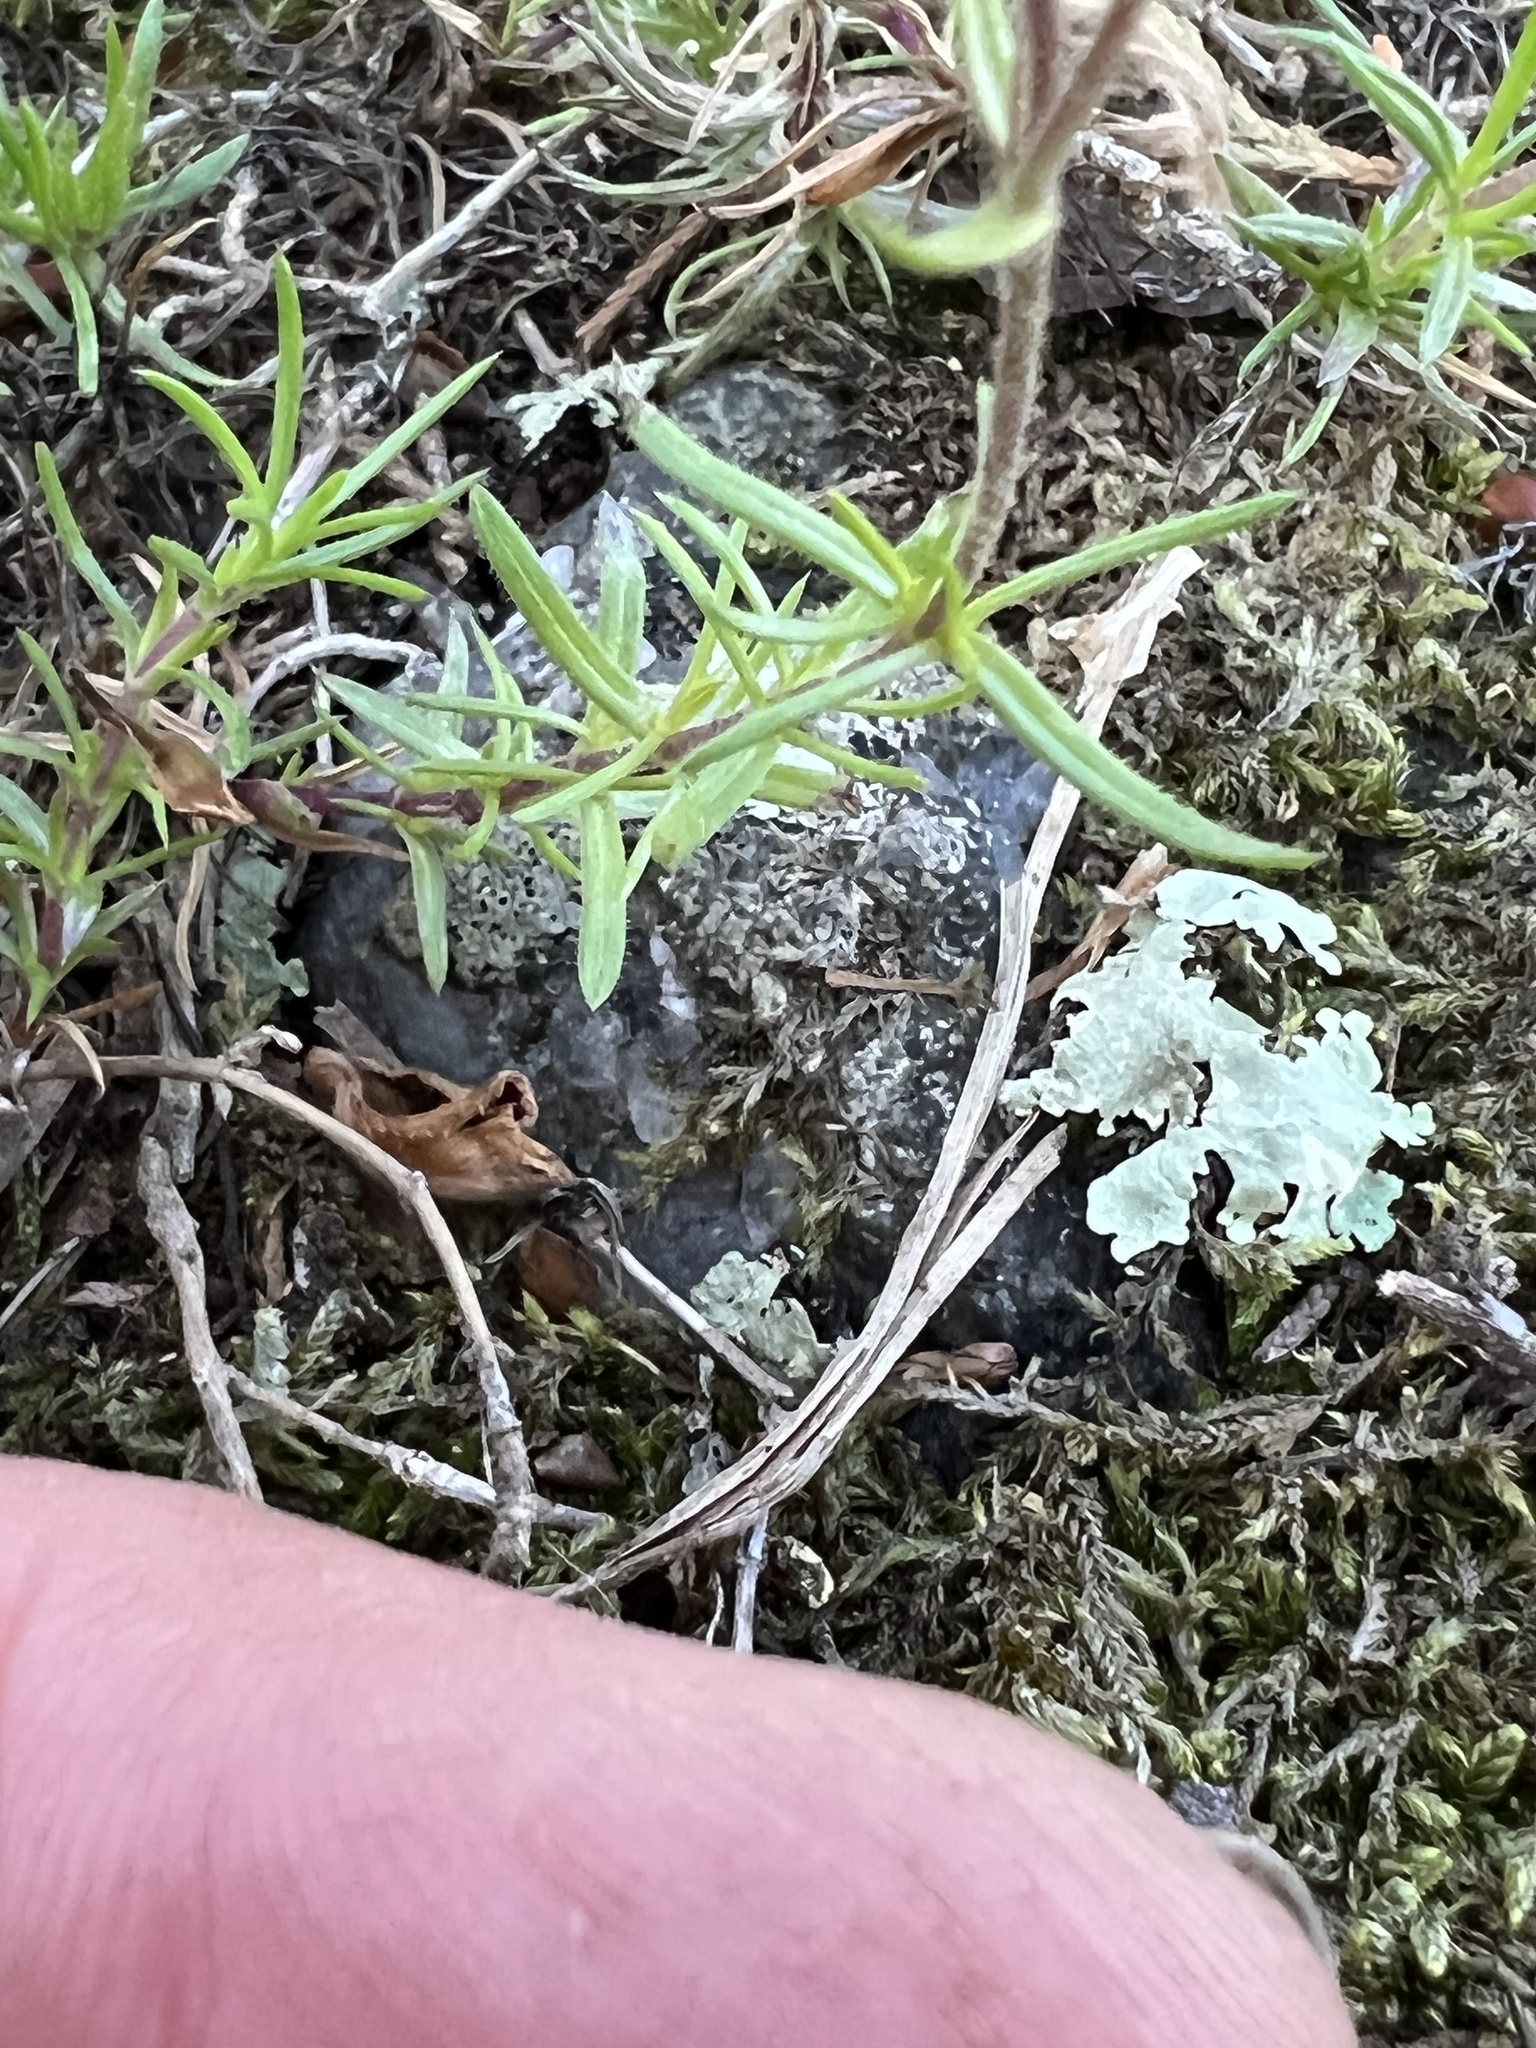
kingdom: Plantae
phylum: Tracheophyta
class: Magnoliopsida
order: Ericales
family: Polemoniaceae
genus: Phlox
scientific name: Phlox subulata
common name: Moss phlox
